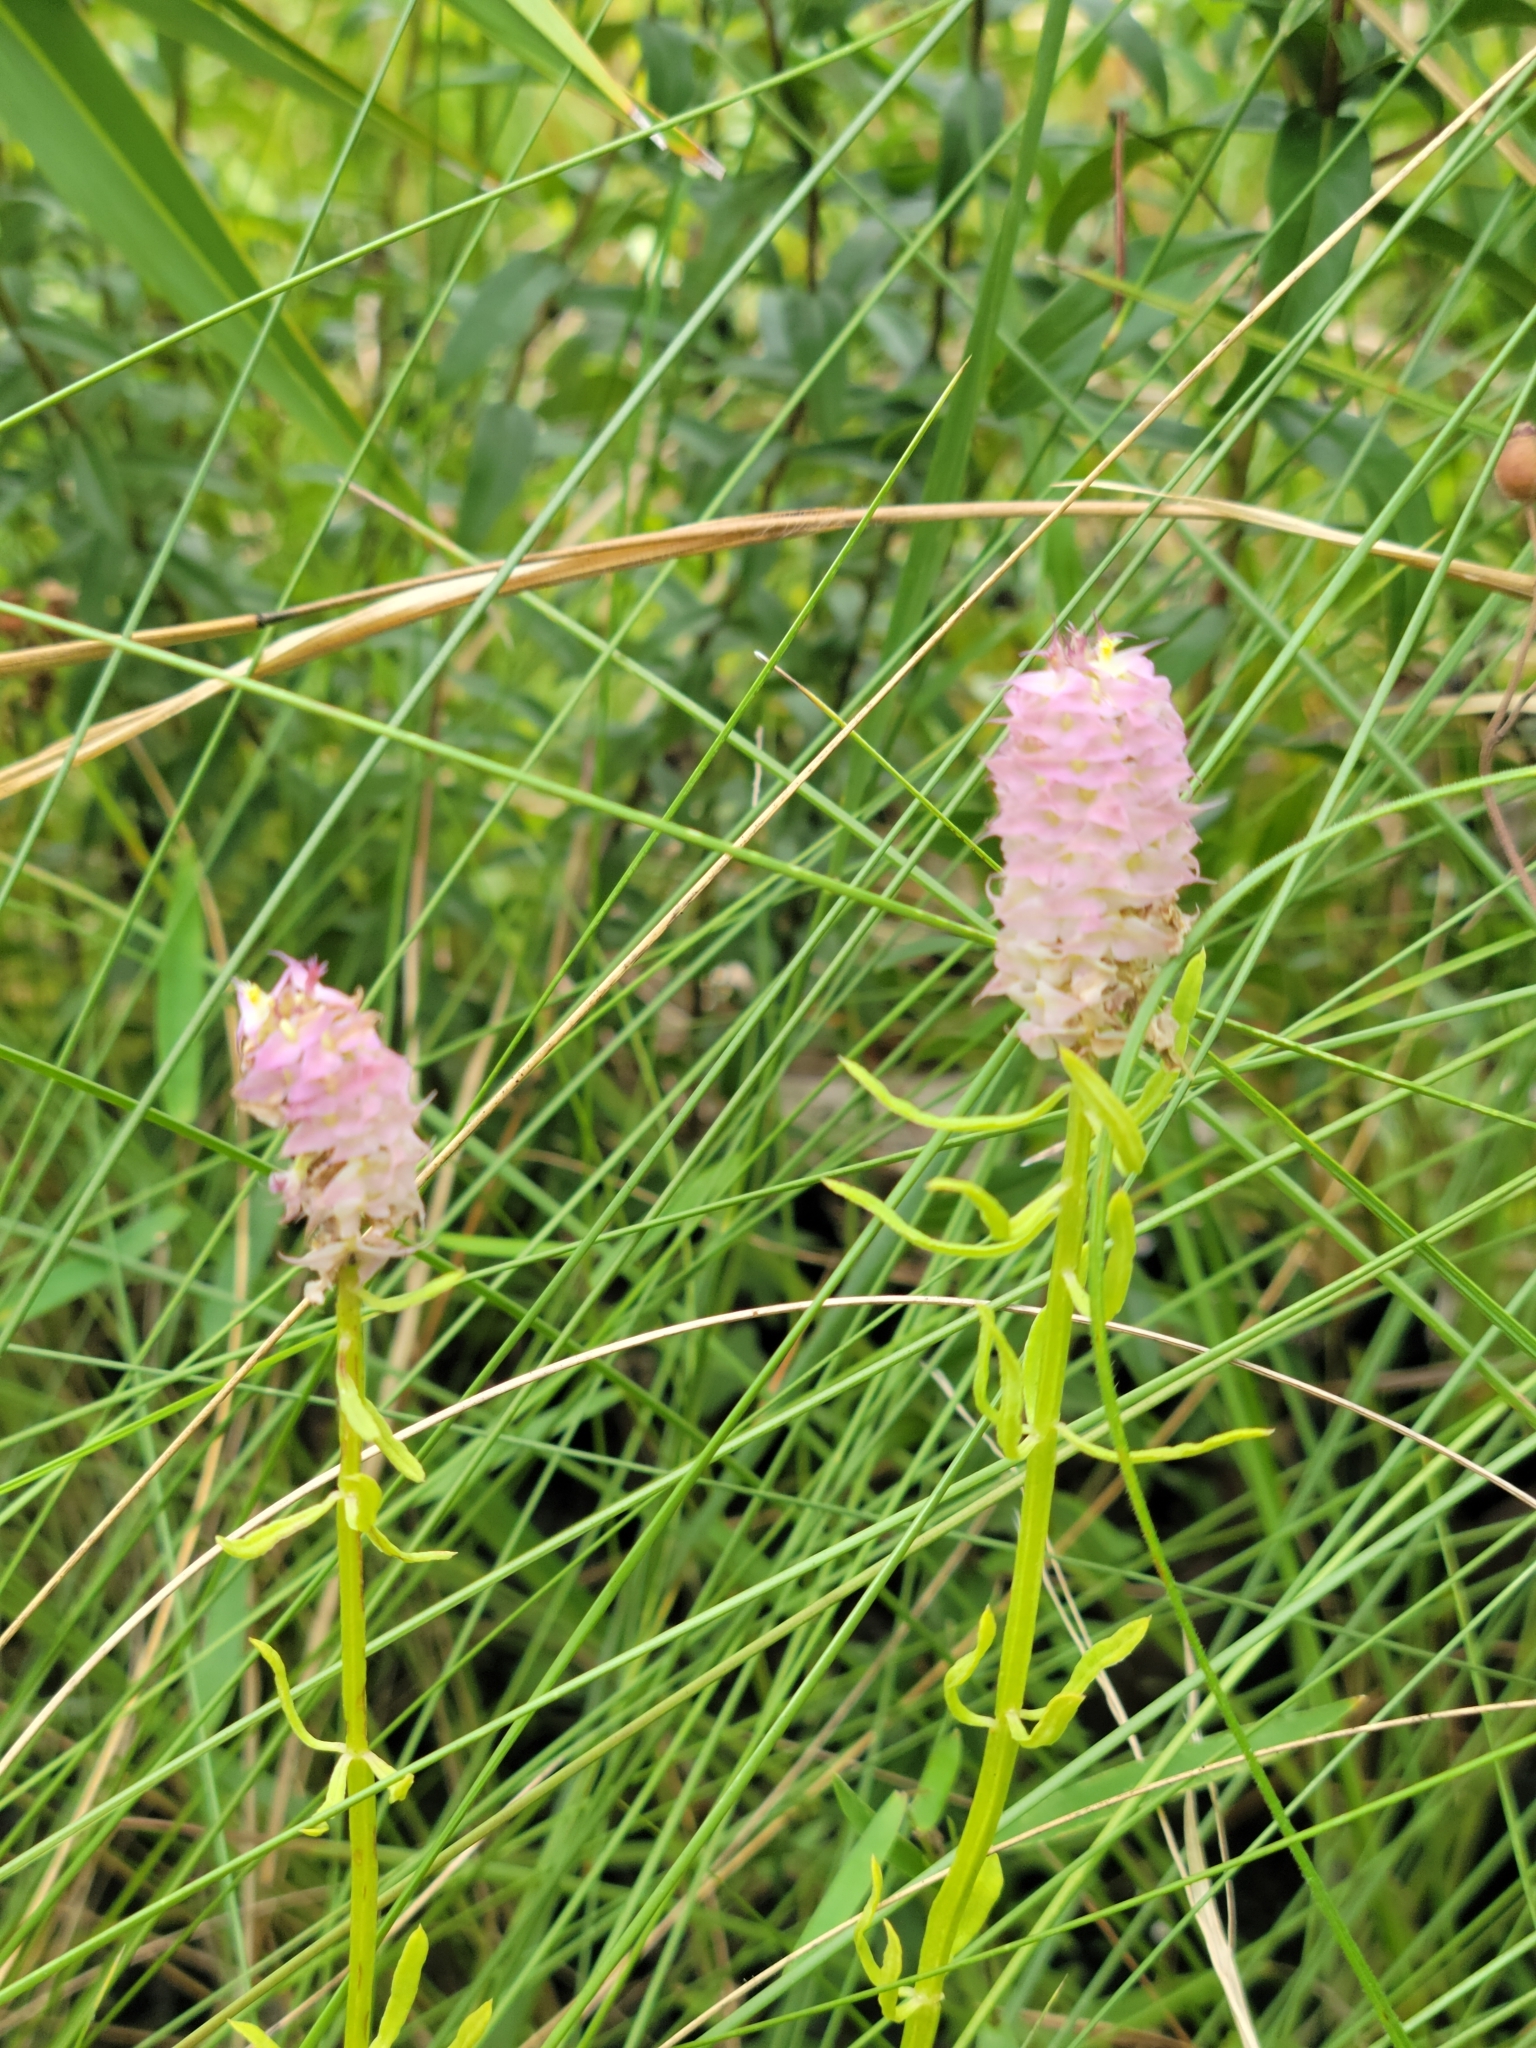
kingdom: Plantae
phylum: Tracheophyta
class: Magnoliopsida
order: Fabales
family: Polygalaceae
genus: Polygala
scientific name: Polygala cruciata
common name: Drumheads
